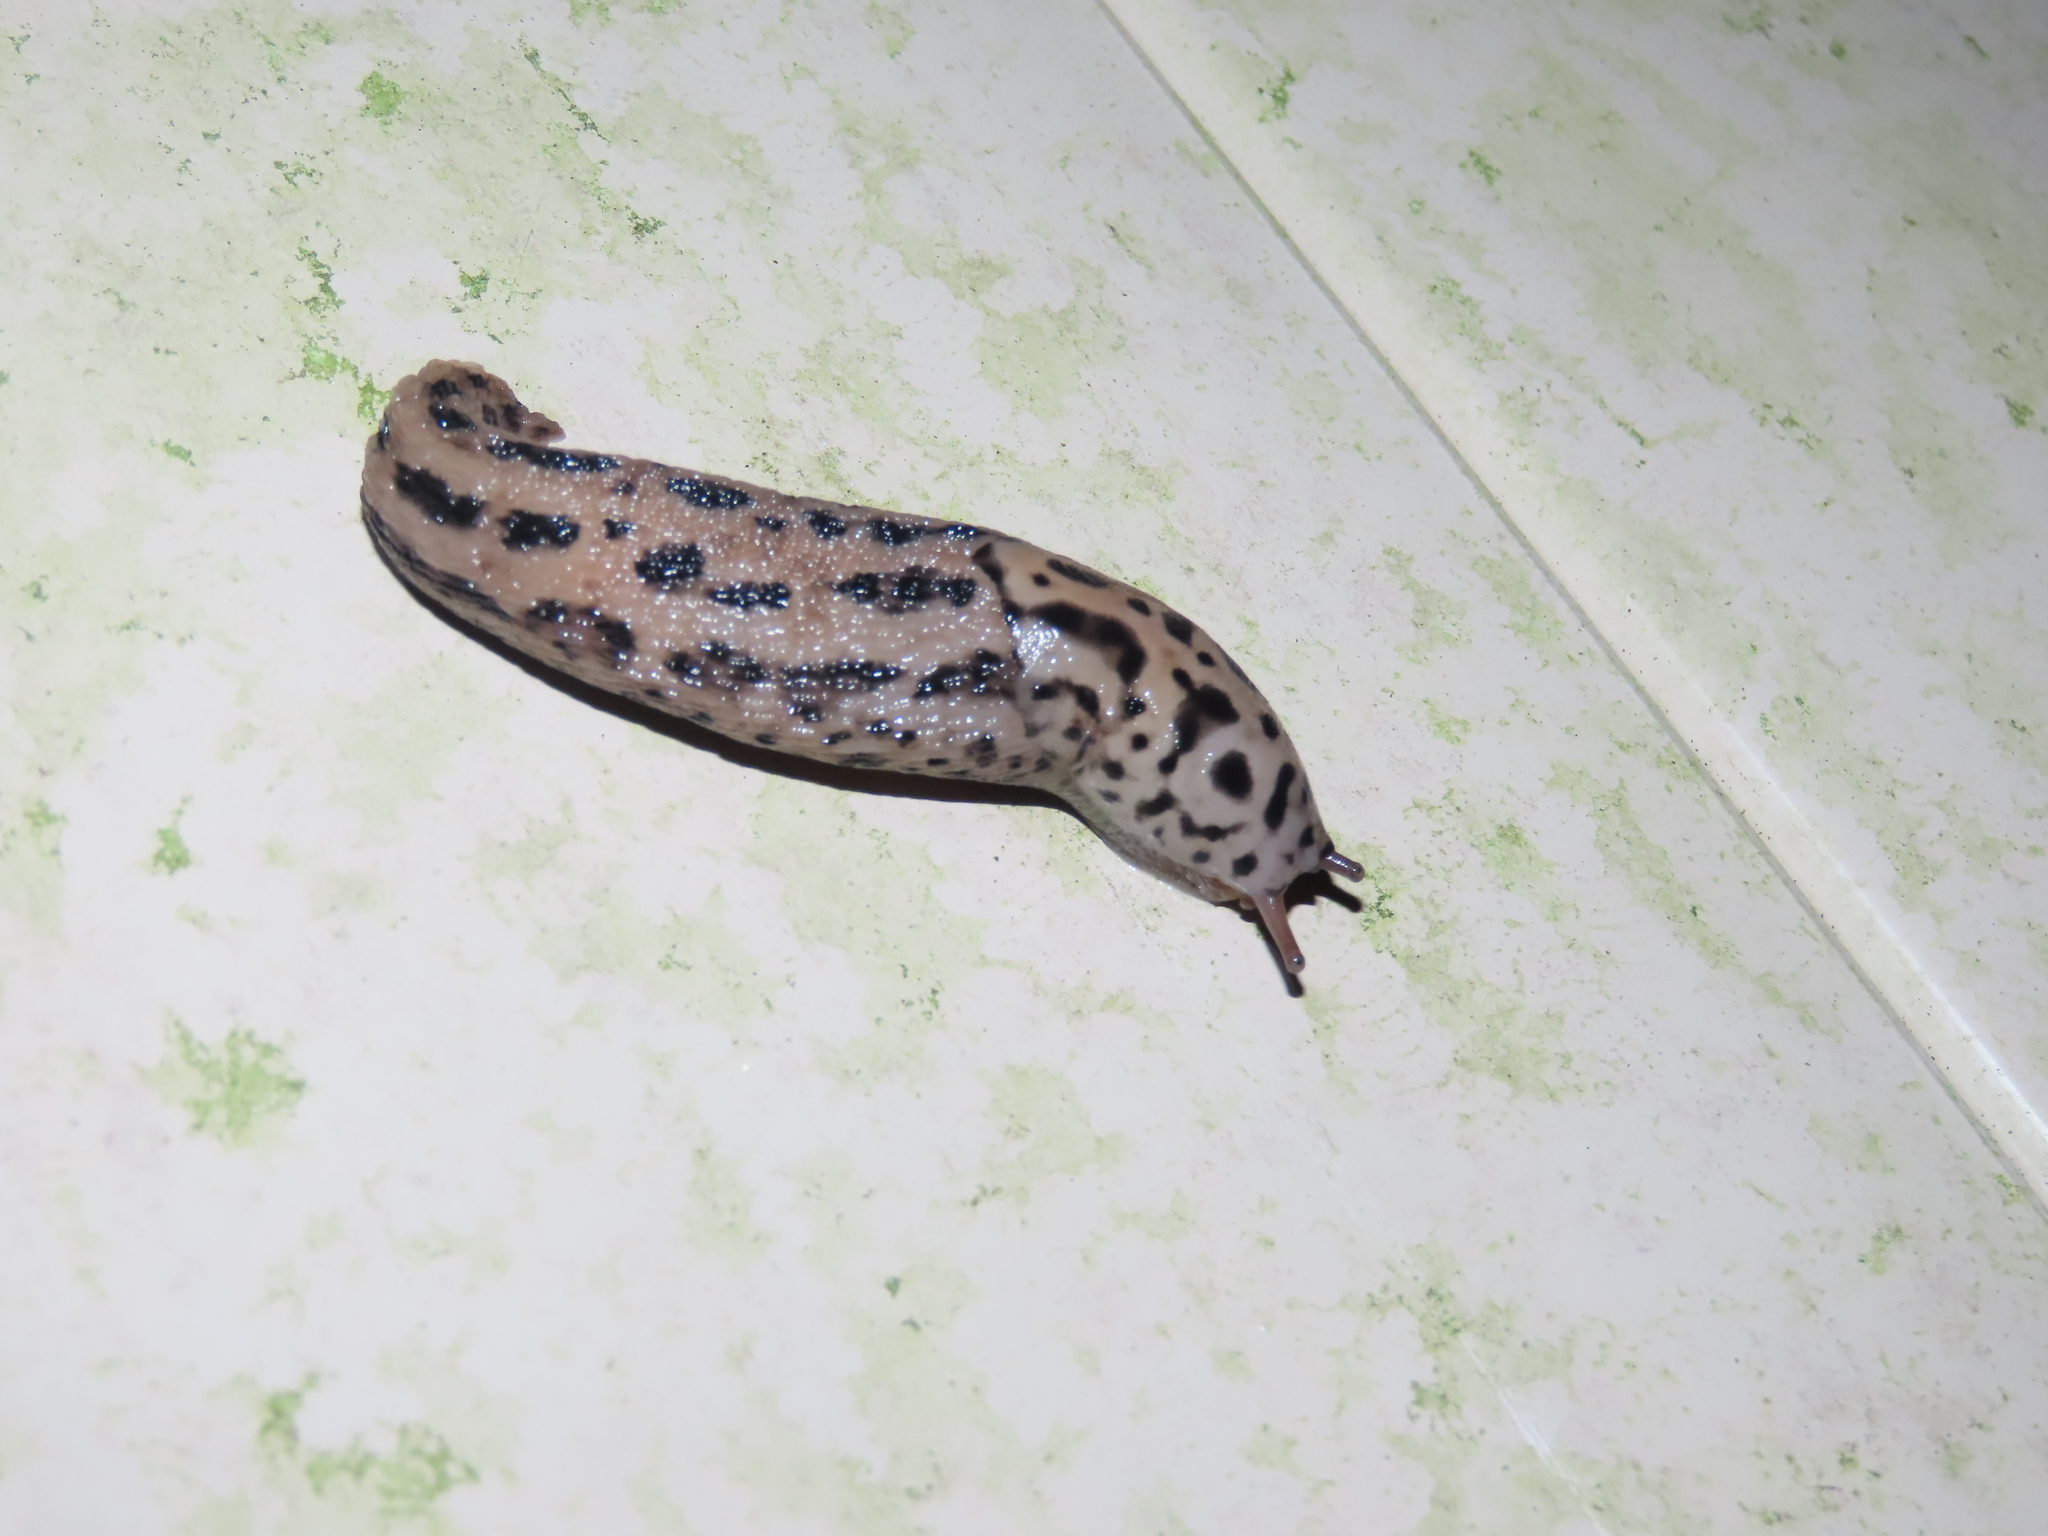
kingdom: Animalia
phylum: Mollusca
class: Gastropoda
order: Stylommatophora
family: Limacidae
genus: Limax
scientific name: Limax maximus
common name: Great grey slug
